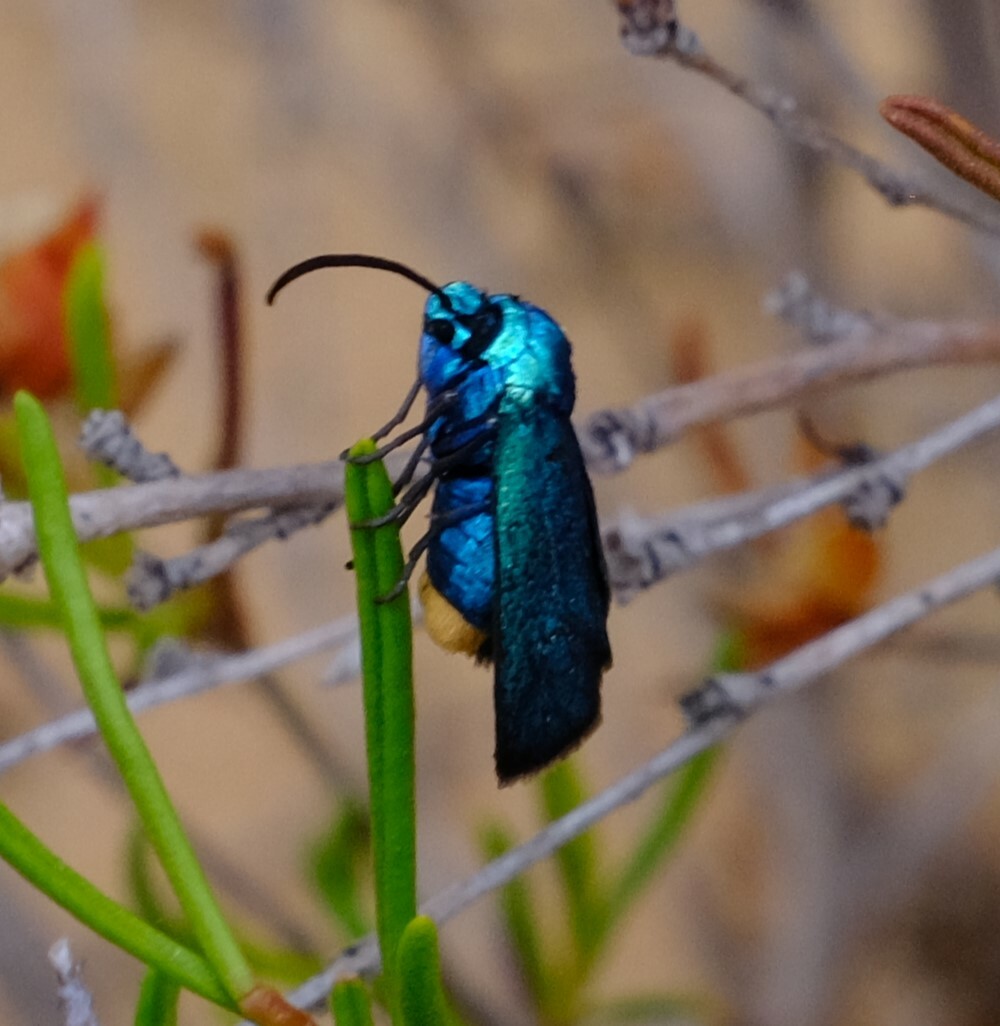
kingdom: Animalia
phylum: Arthropoda
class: Insecta
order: Lepidoptera
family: Zygaenidae
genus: Pollanisus
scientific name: Pollanisus viridipulverulenta
